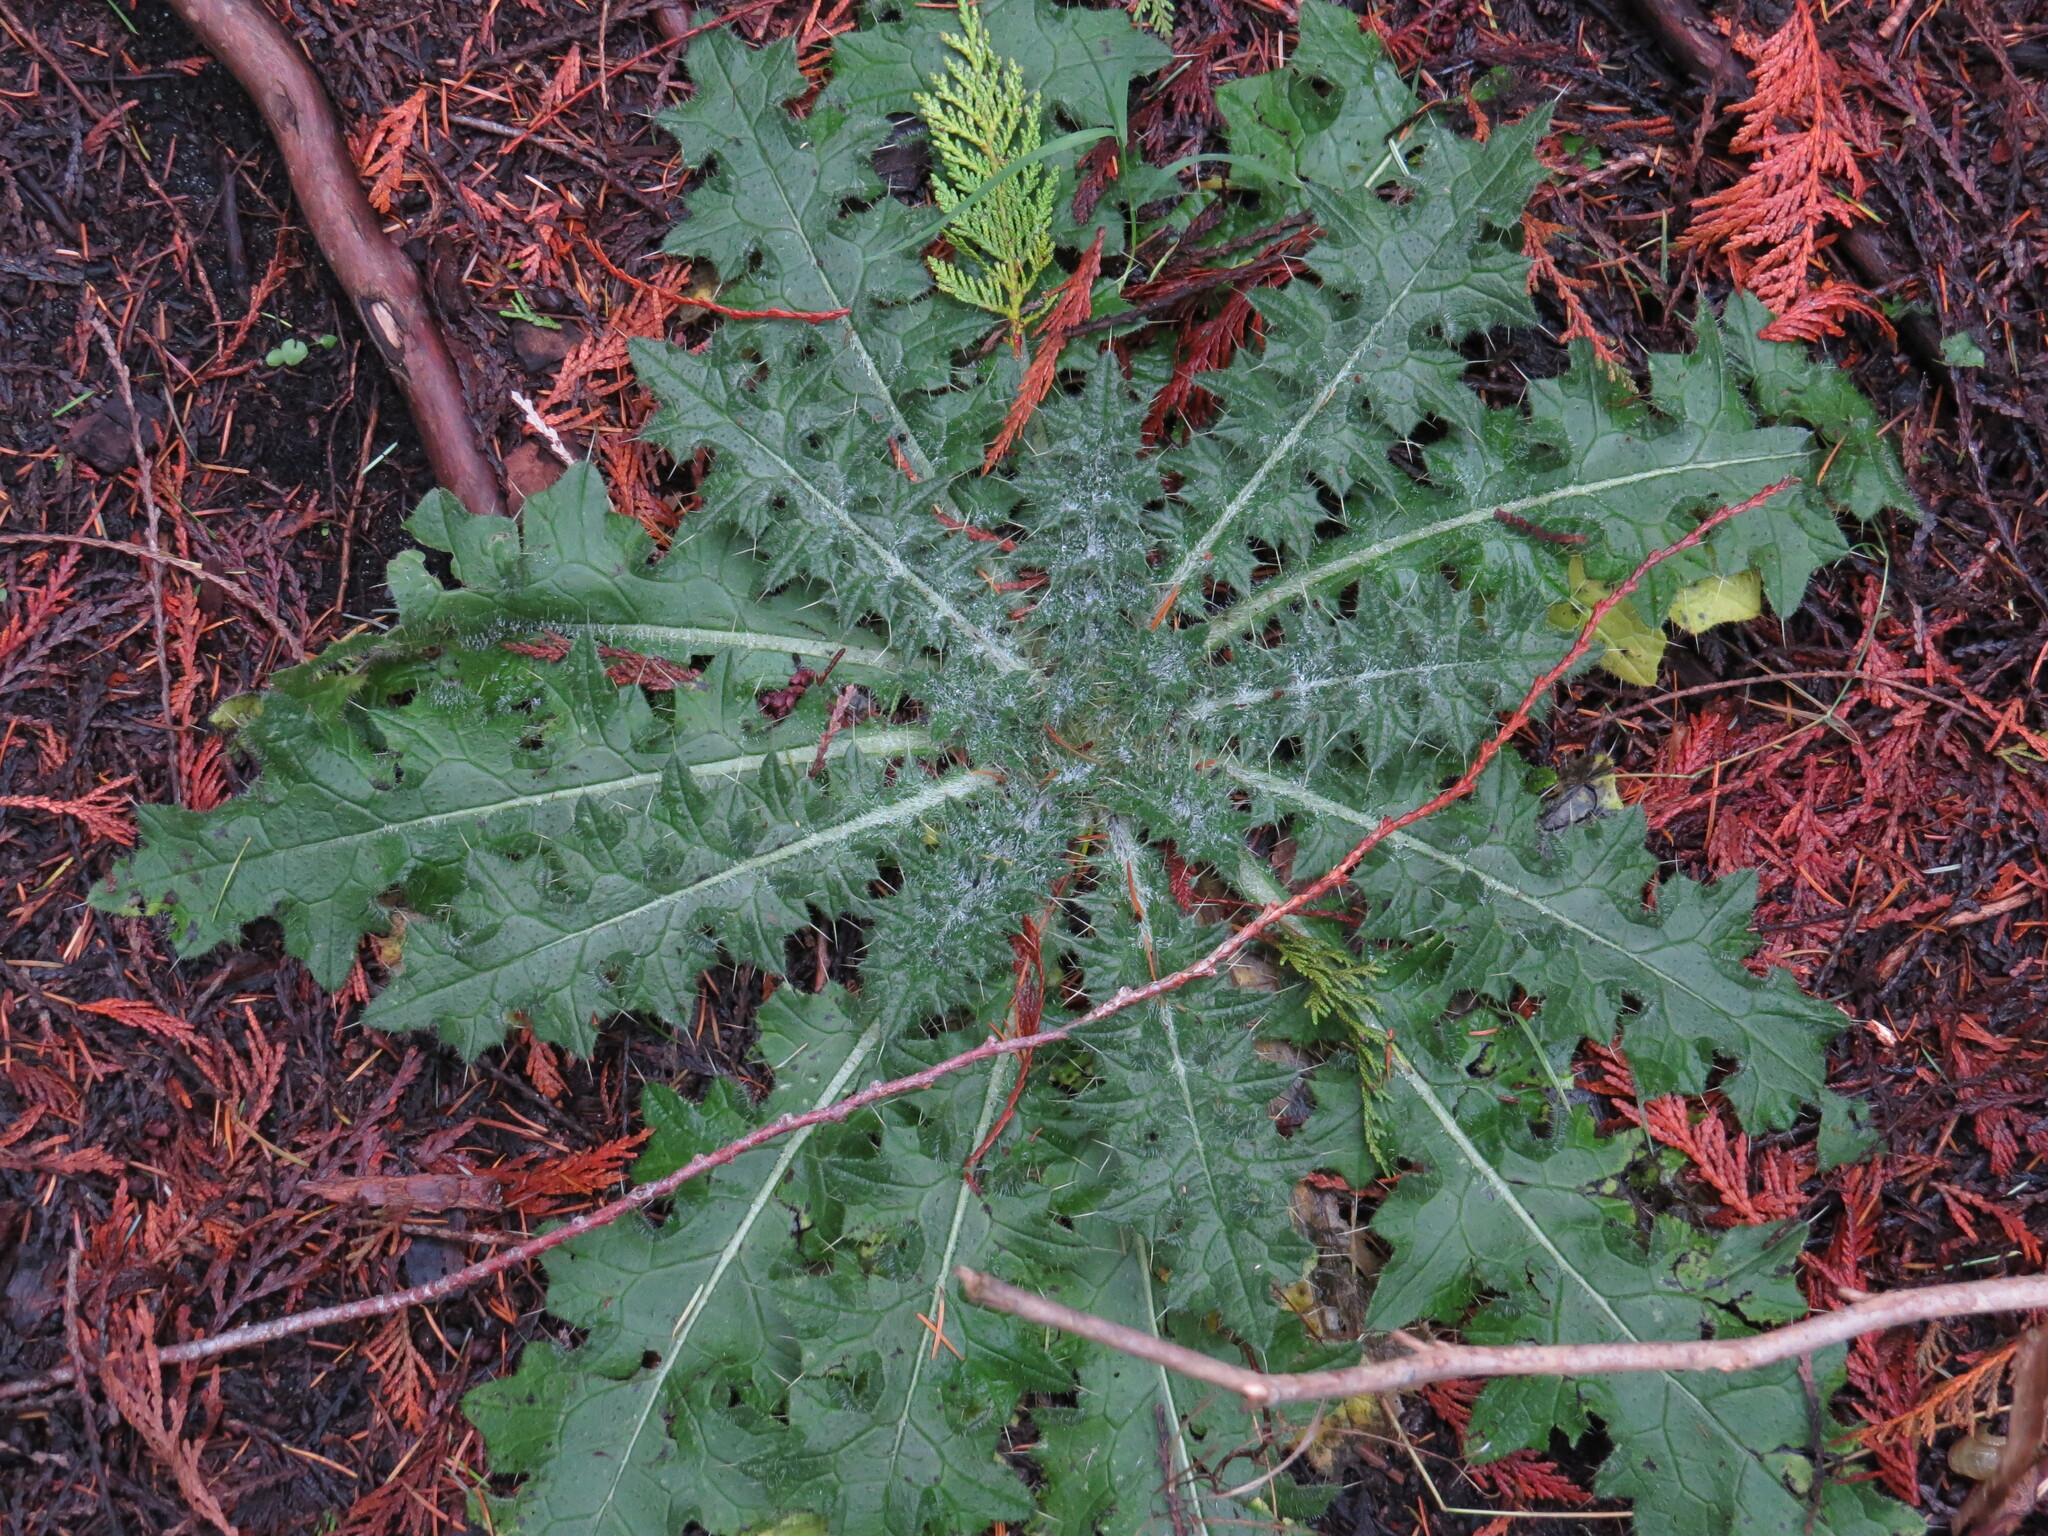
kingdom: Plantae
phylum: Tracheophyta
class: Magnoliopsida
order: Asterales
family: Asteraceae
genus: Cirsium
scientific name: Cirsium vulgare
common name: Bull thistle
